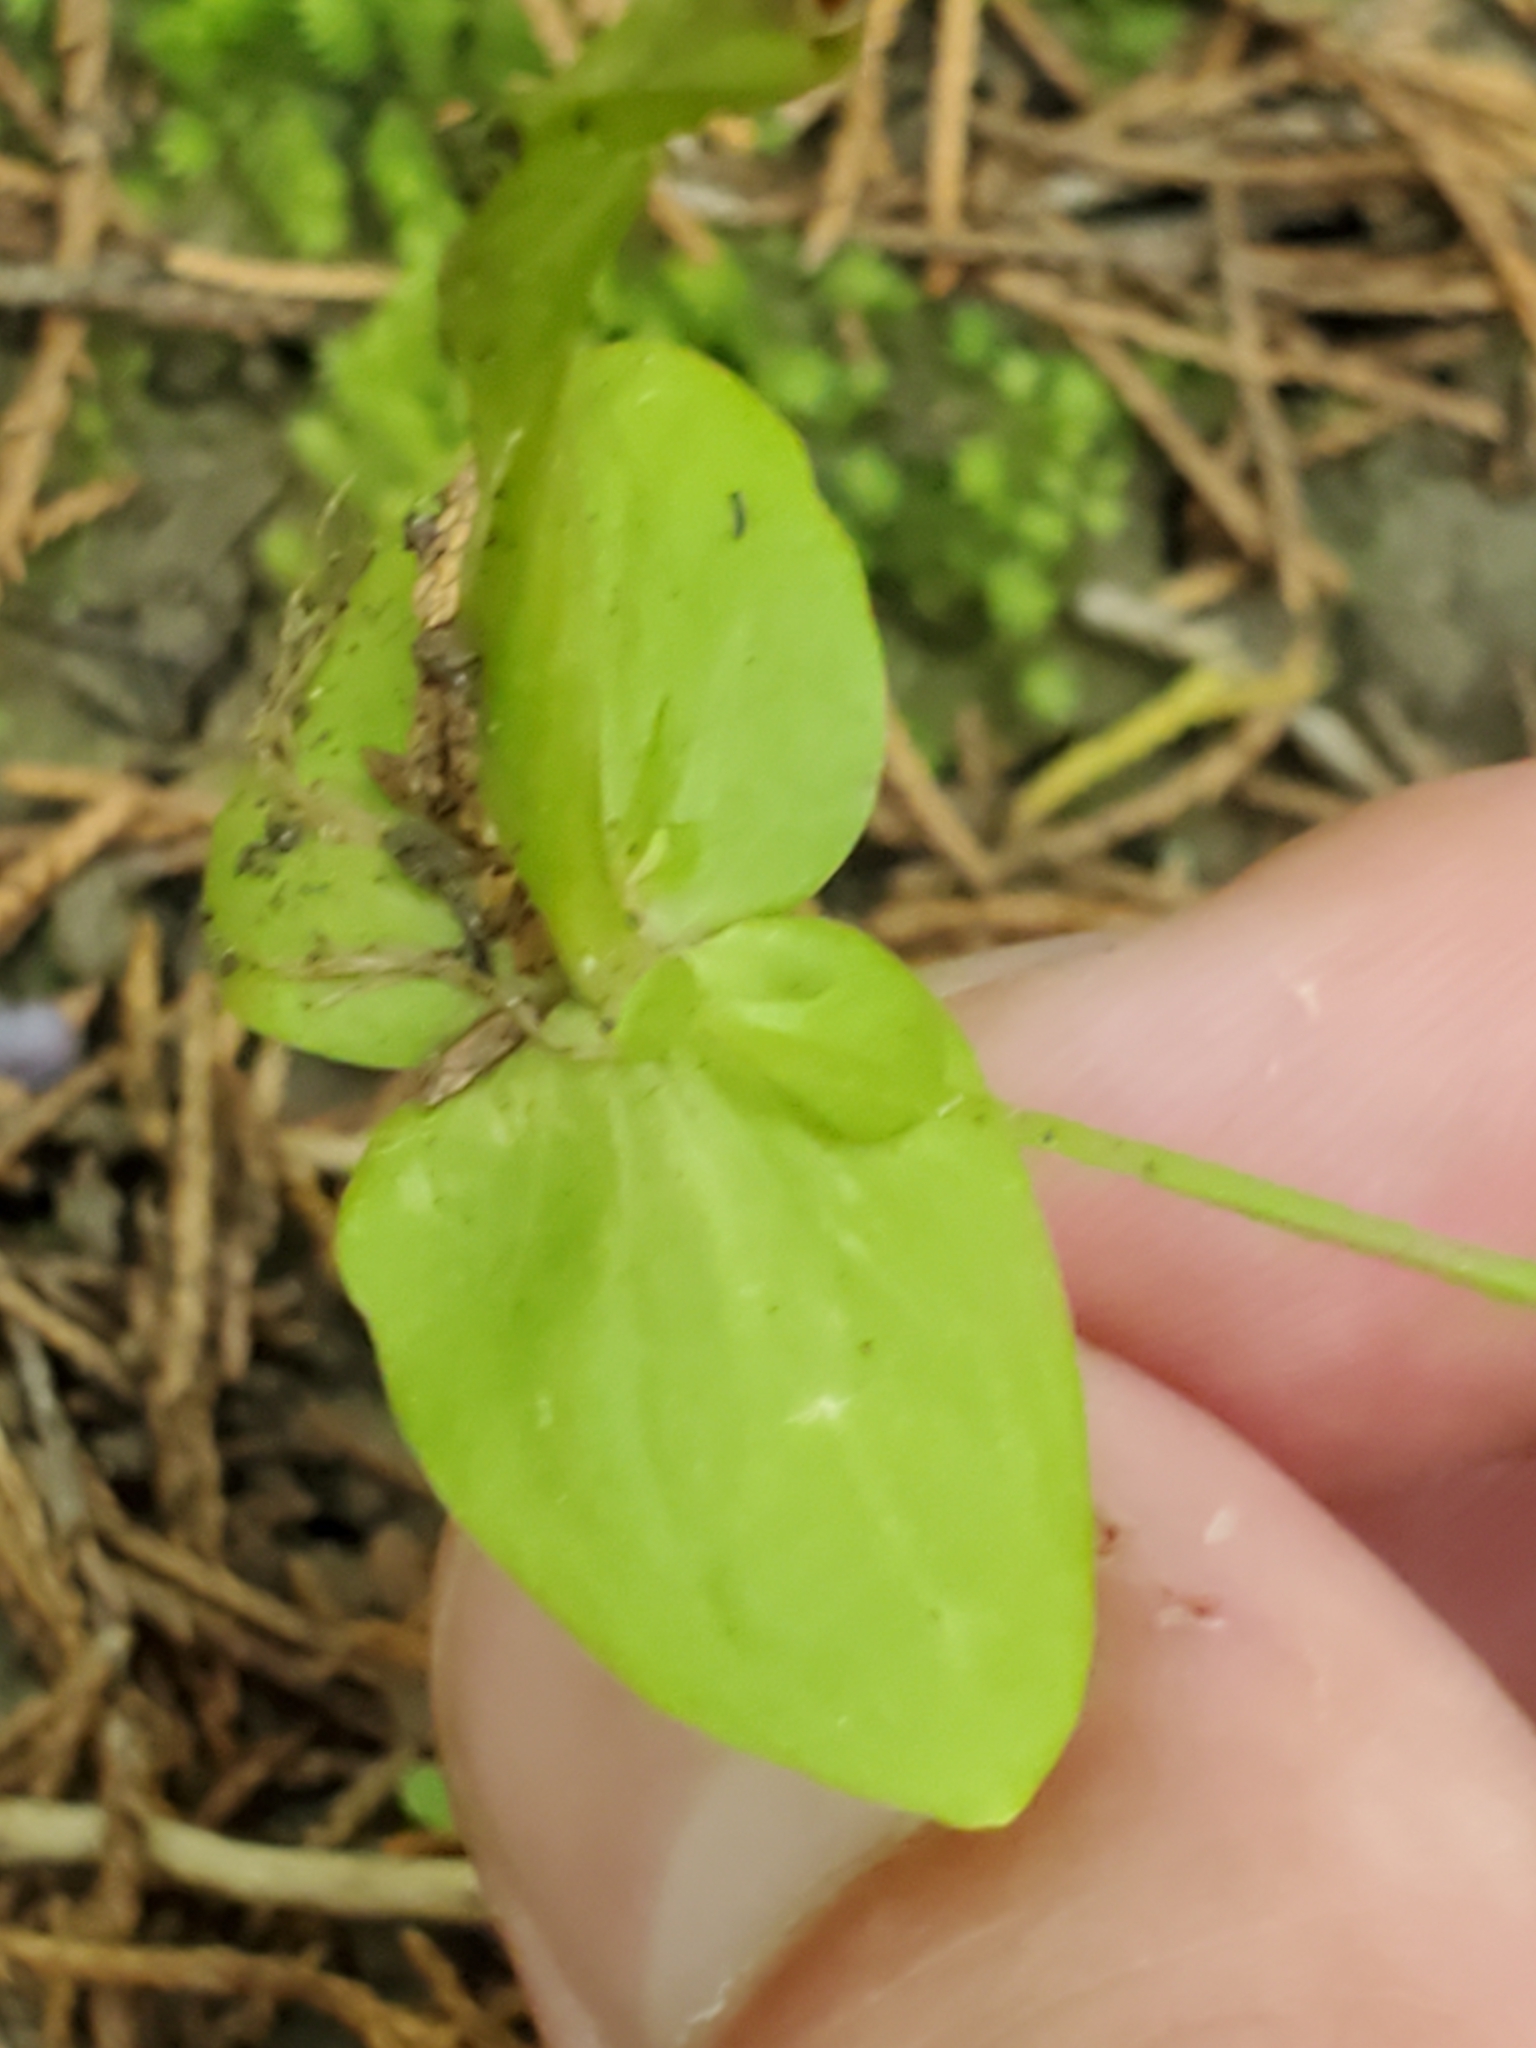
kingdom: Plantae
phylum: Tracheophyta
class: Magnoliopsida
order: Gentianales
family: Gentianaceae
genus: Sabatia
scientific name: Sabatia angularis
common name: Rose-pink
